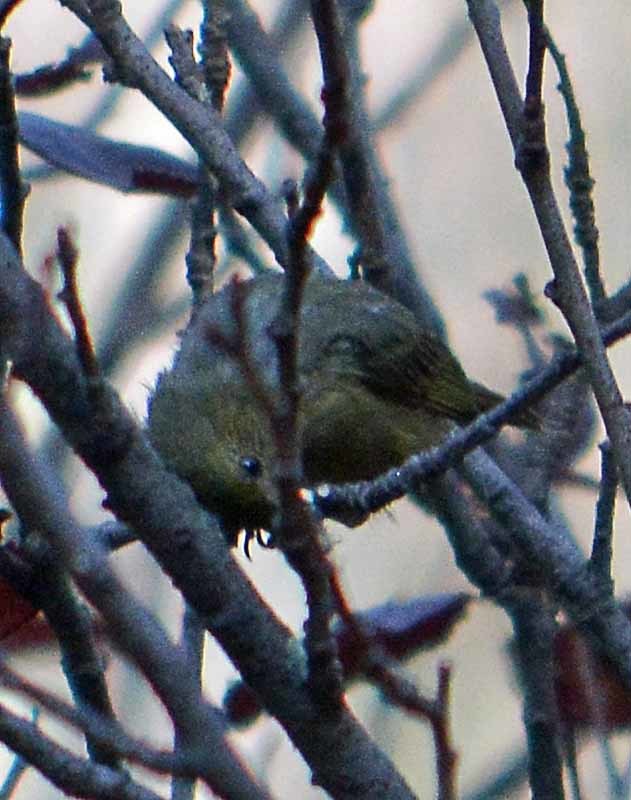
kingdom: Animalia
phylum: Chordata
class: Aves
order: Passeriformes
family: Thraupidae
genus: Diglossa
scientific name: Diglossa baritula
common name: Cinnamon-bellied flowerpiercer
